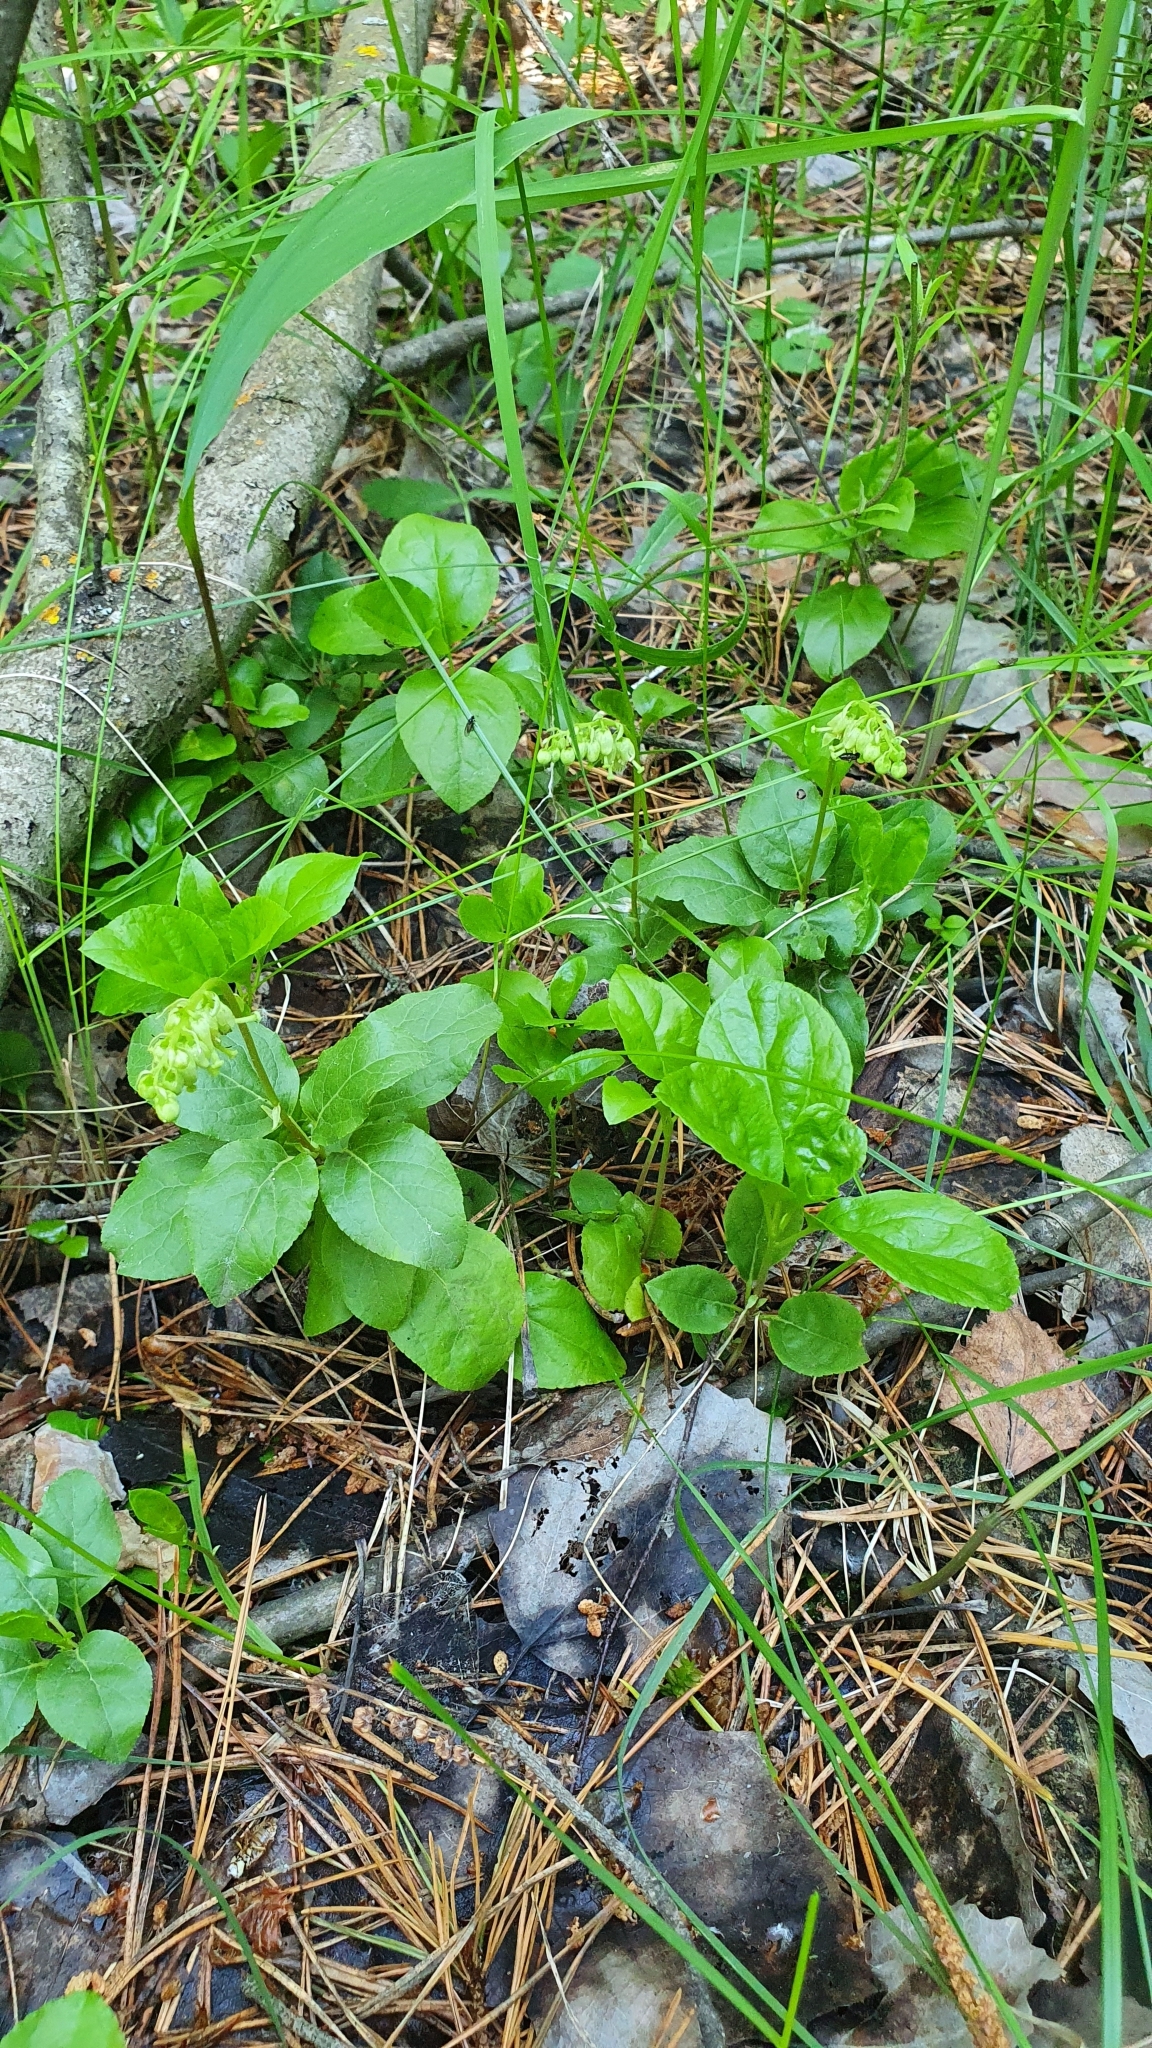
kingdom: Plantae
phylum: Tracheophyta
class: Magnoliopsida
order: Ericales
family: Ericaceae
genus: Orthilia
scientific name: Orthilia secunda
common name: One-sided orthilia
